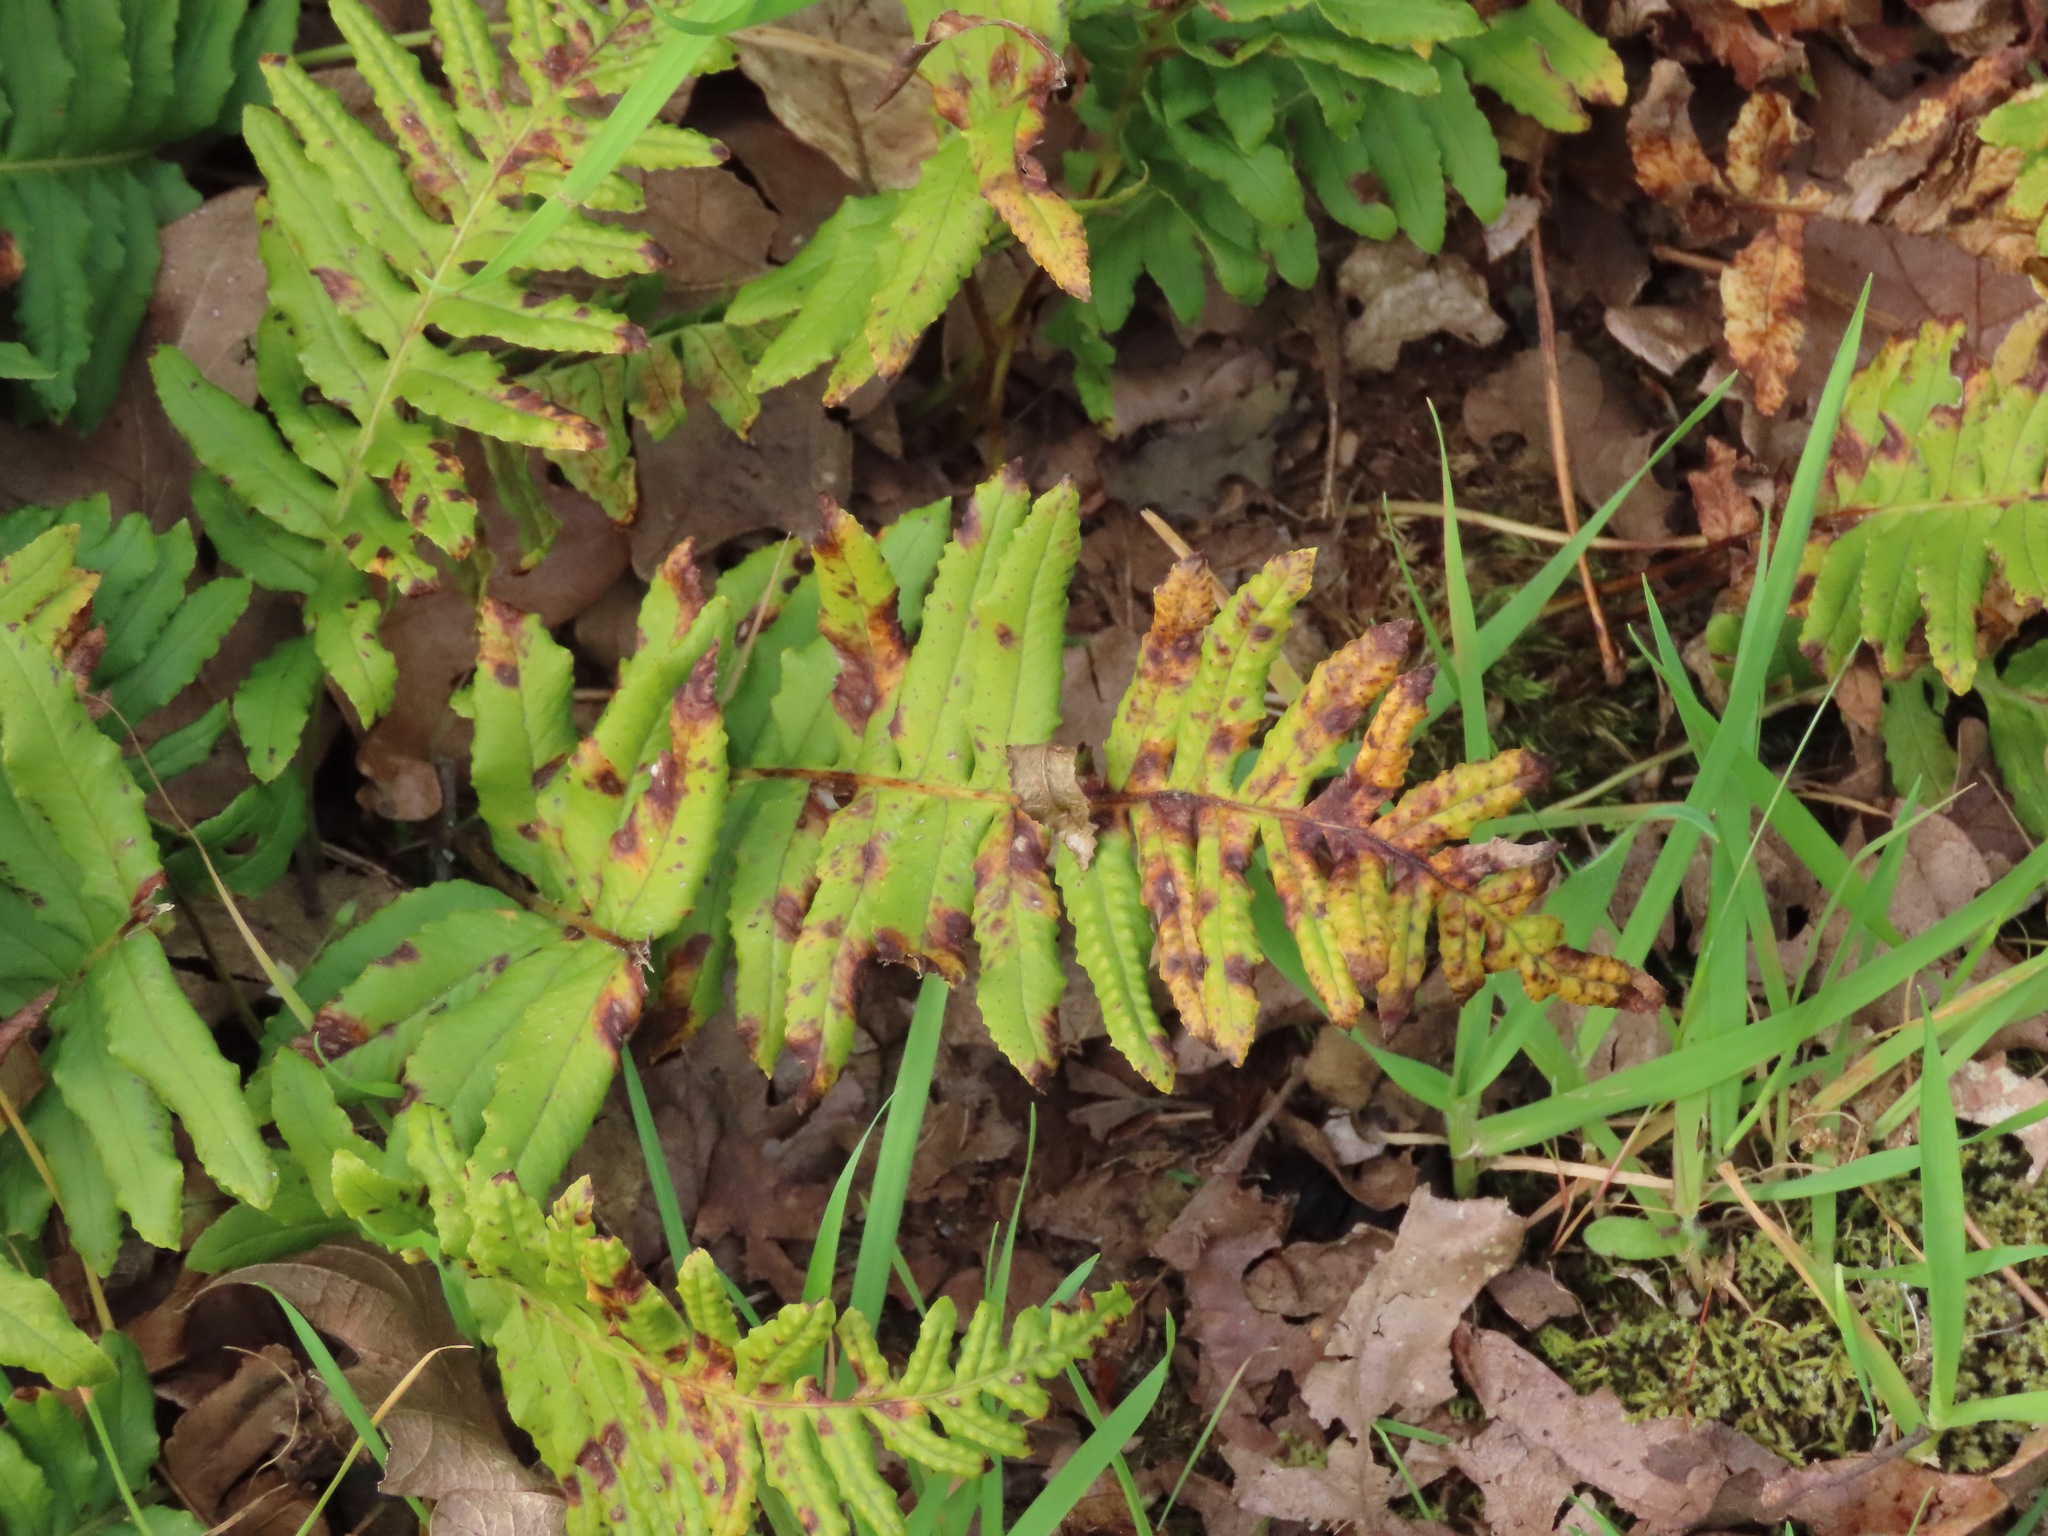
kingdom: Plantae
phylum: Tracheophyta
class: Polypodiopsida
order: Polypodiales
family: Polypodiaceae
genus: Polypodium
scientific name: Polypodium glycyrrhiza
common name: Licorice fern
